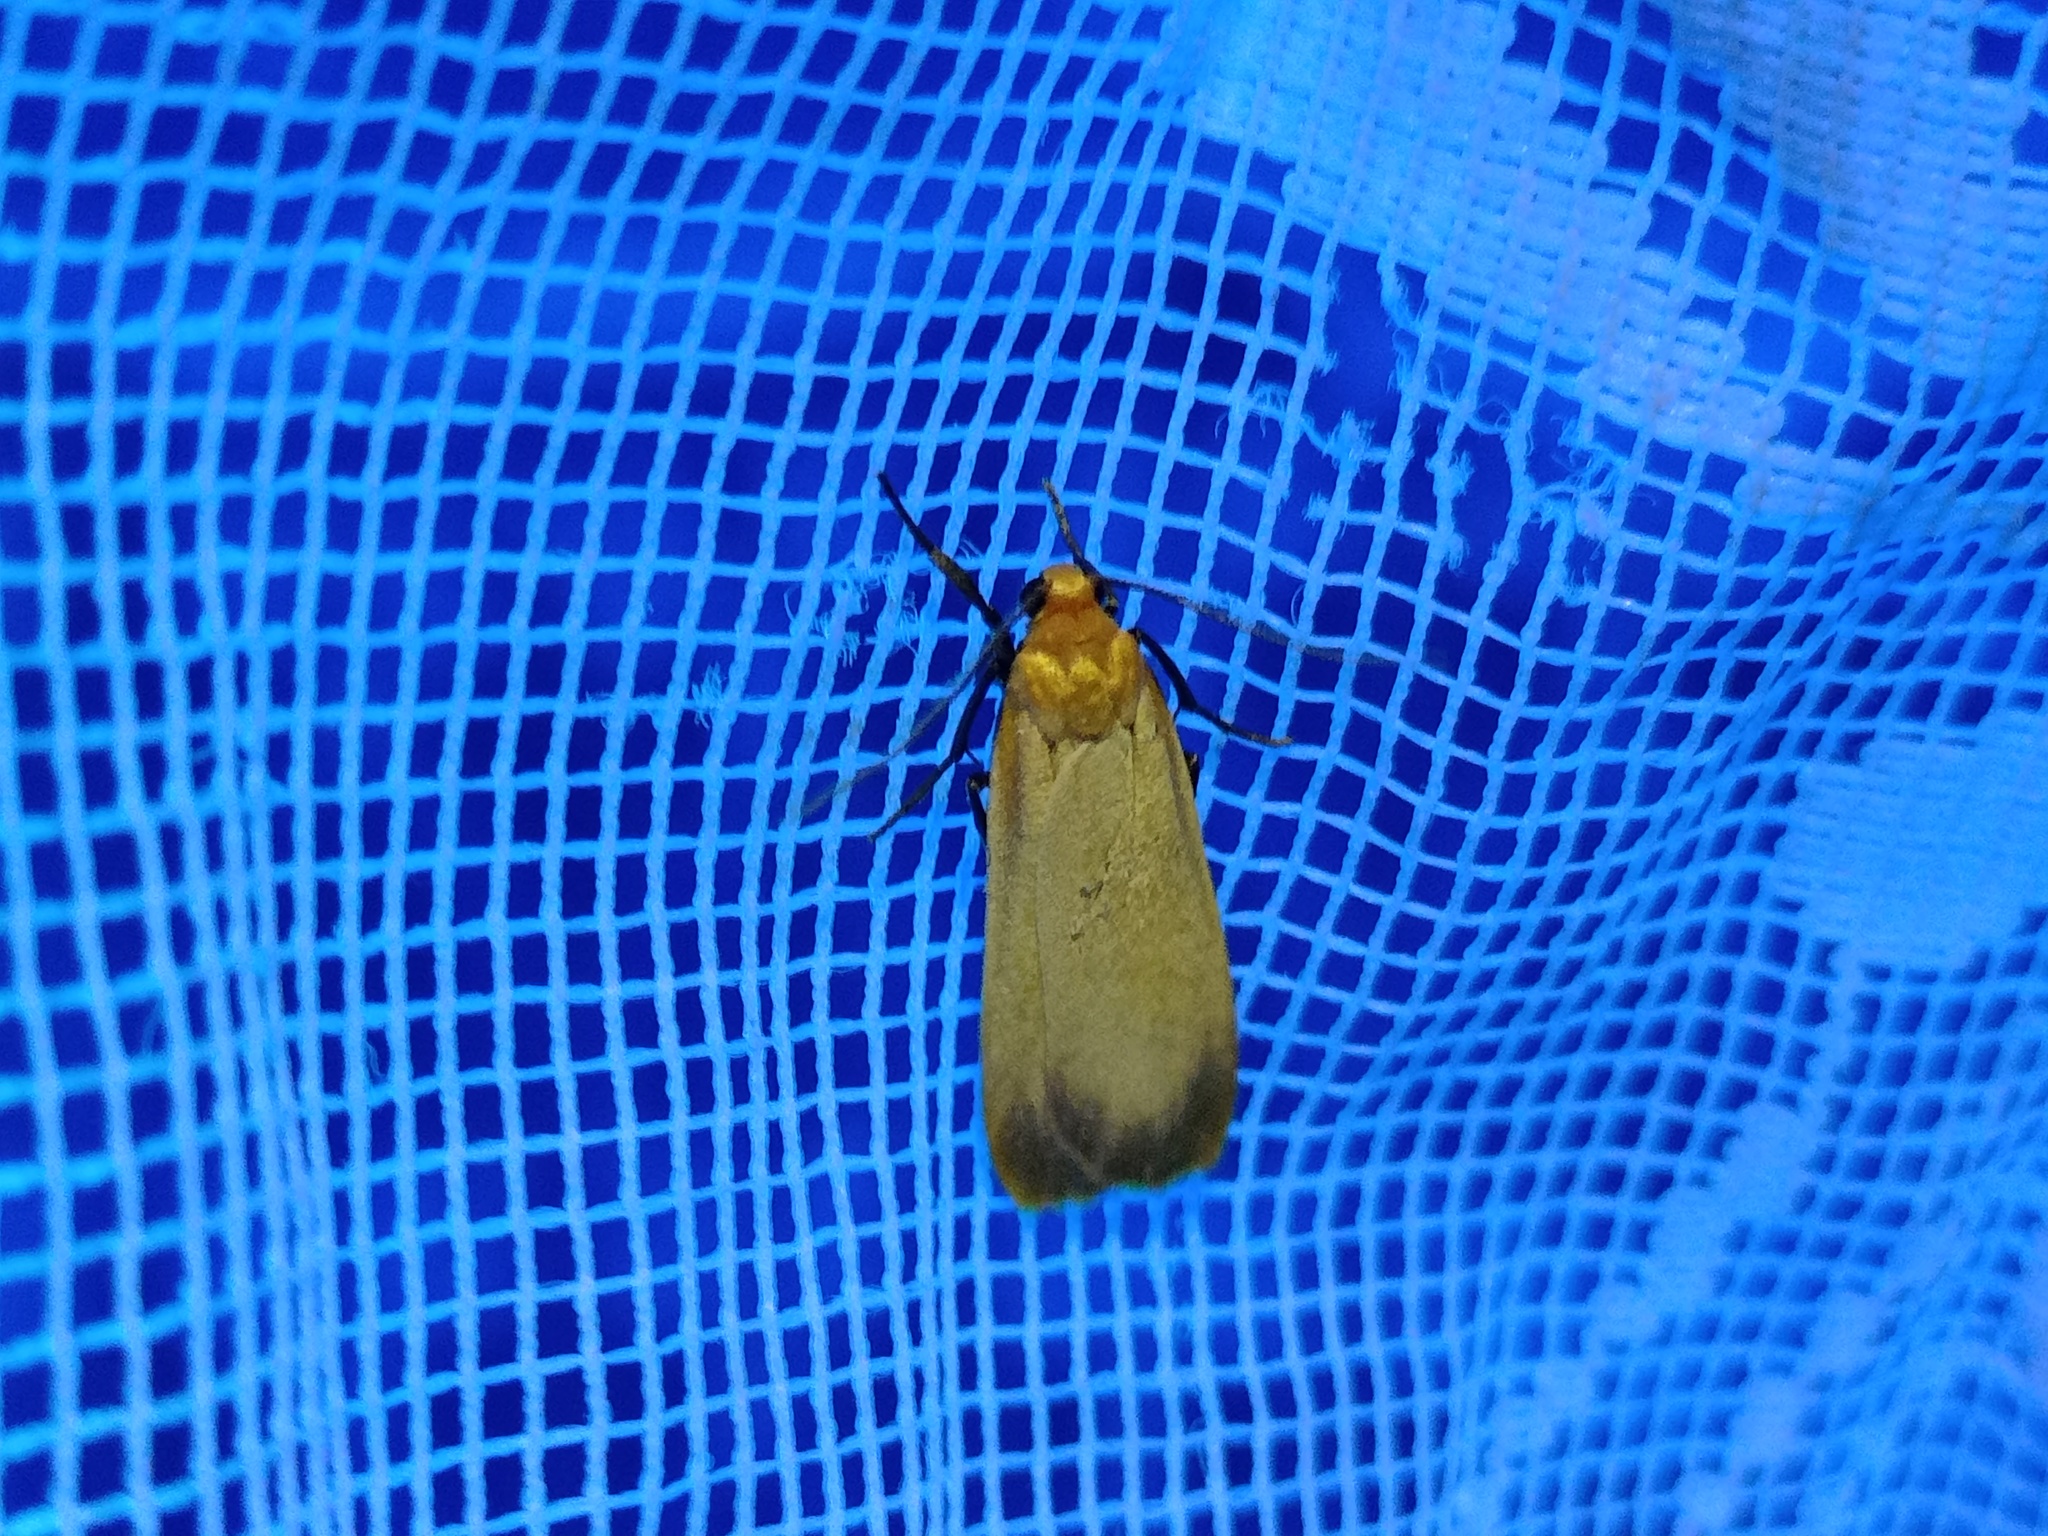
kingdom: Animalia
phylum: Arthropoda
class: Insecta
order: Lepidoptera
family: Erebidae
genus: Katha
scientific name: Katha depressa
